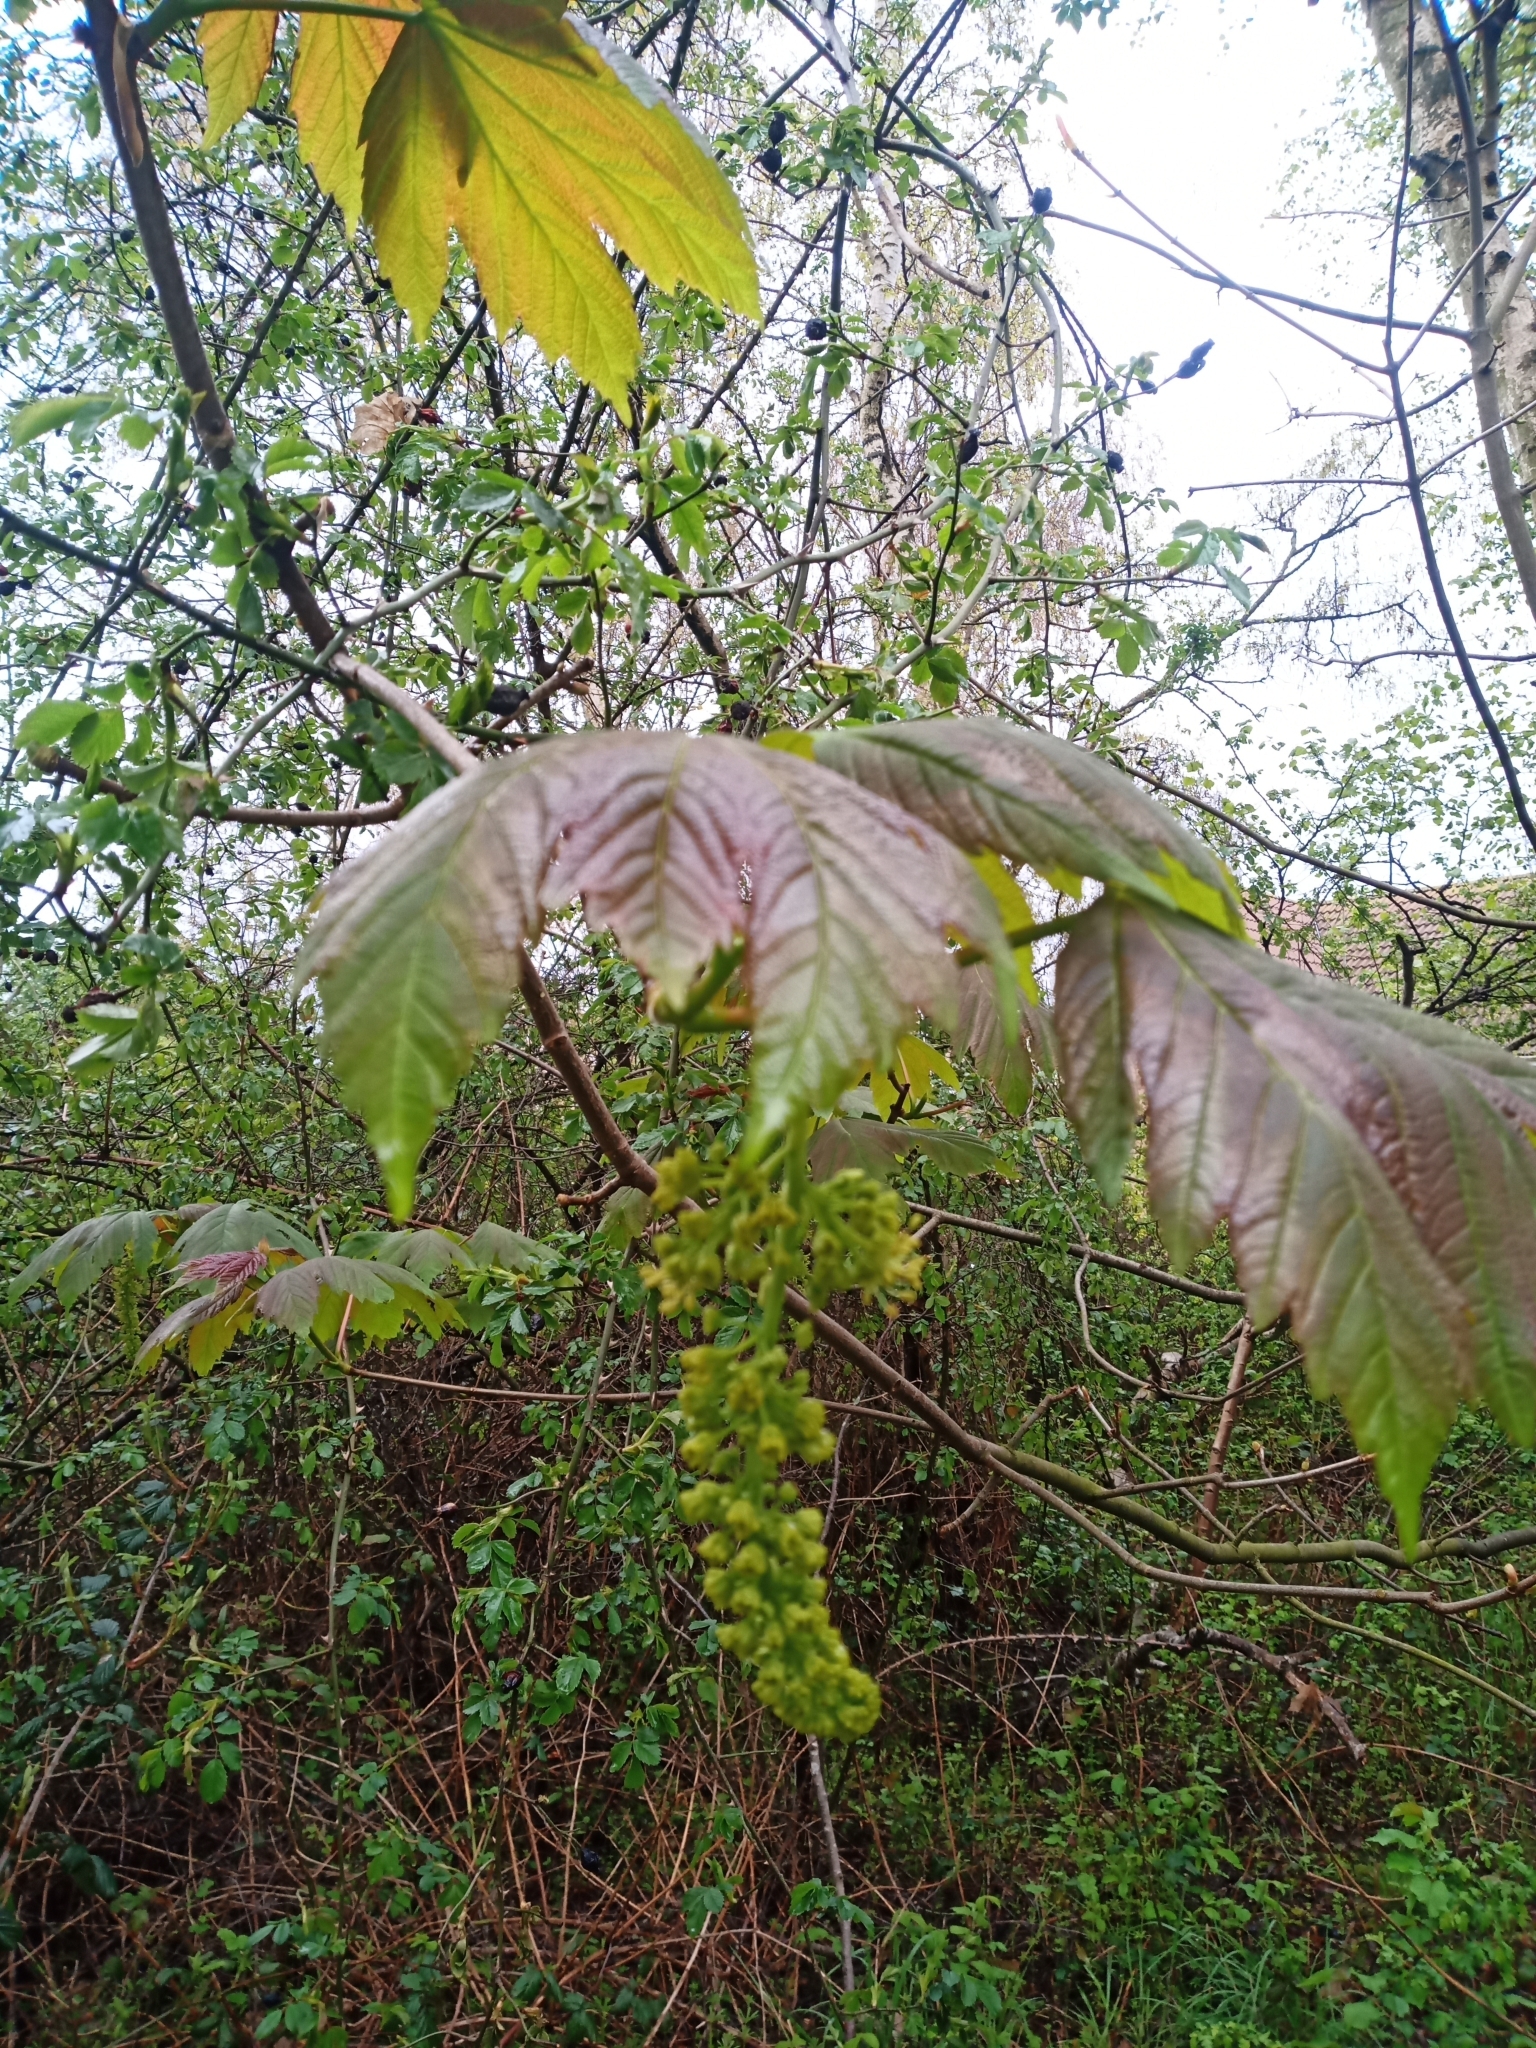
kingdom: Plantae
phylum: Tracheophyta
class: Magnoliopsida
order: Sapindales
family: Sapindaceae
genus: Acer
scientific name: Acer pseudoplatanus
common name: Sycamore
